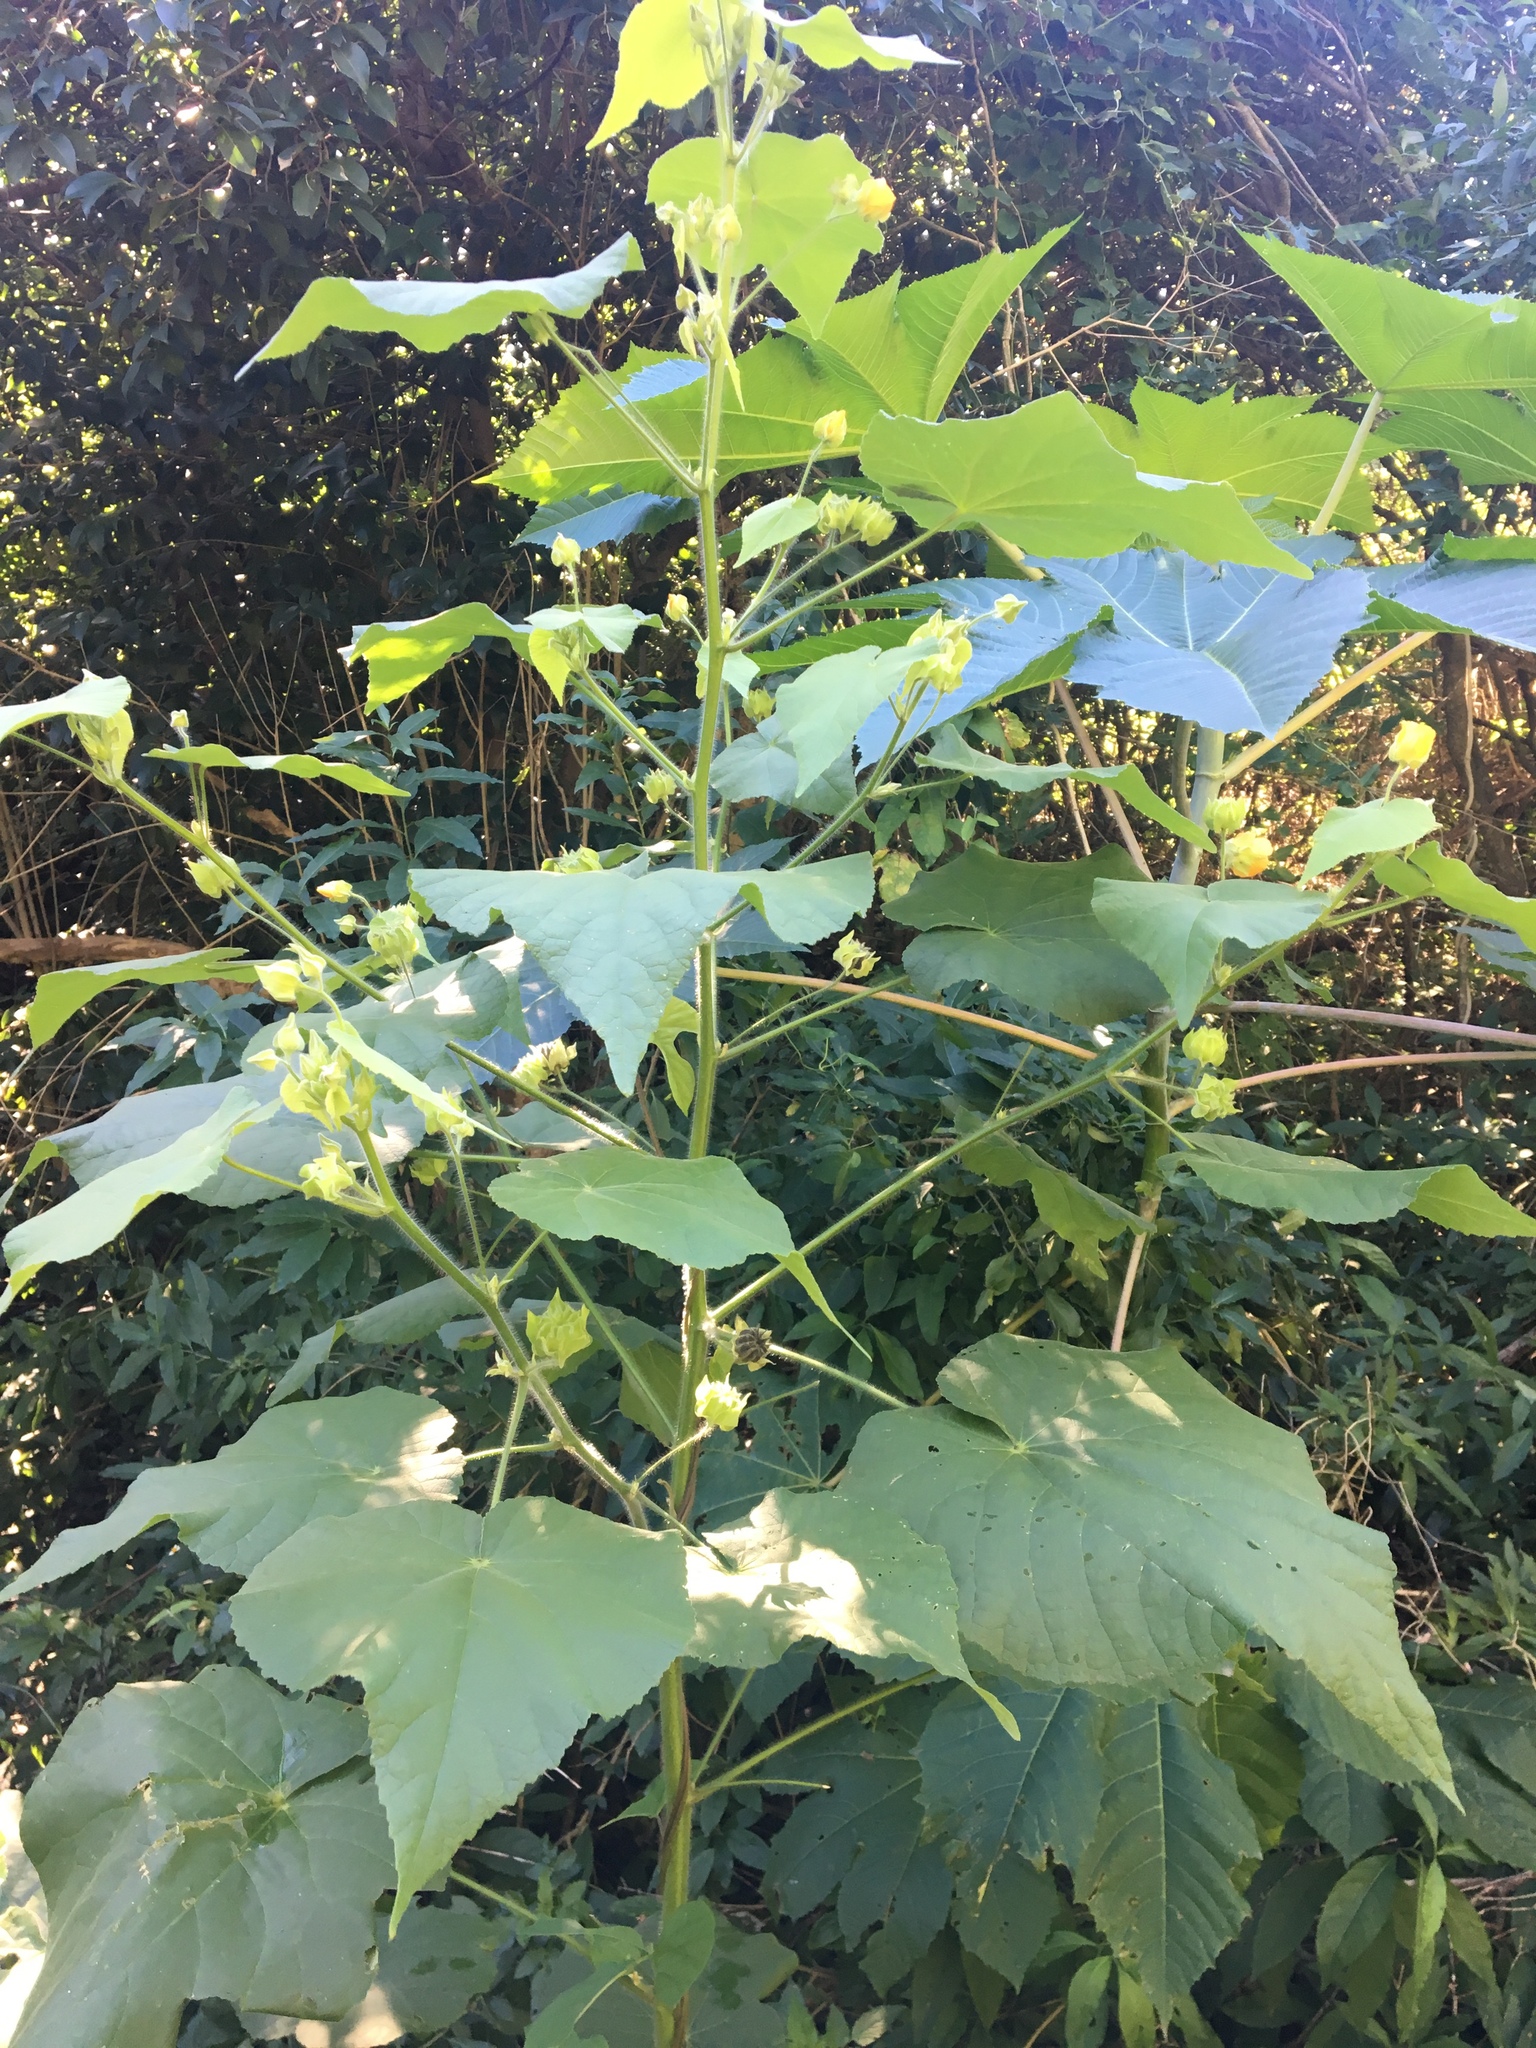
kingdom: Plantae
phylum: Tracheophyta
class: Magnoliopsida
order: Malvales
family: Malvaceae
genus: Abutilon
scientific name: Abutilon grandifolium
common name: Hairy abutilon
